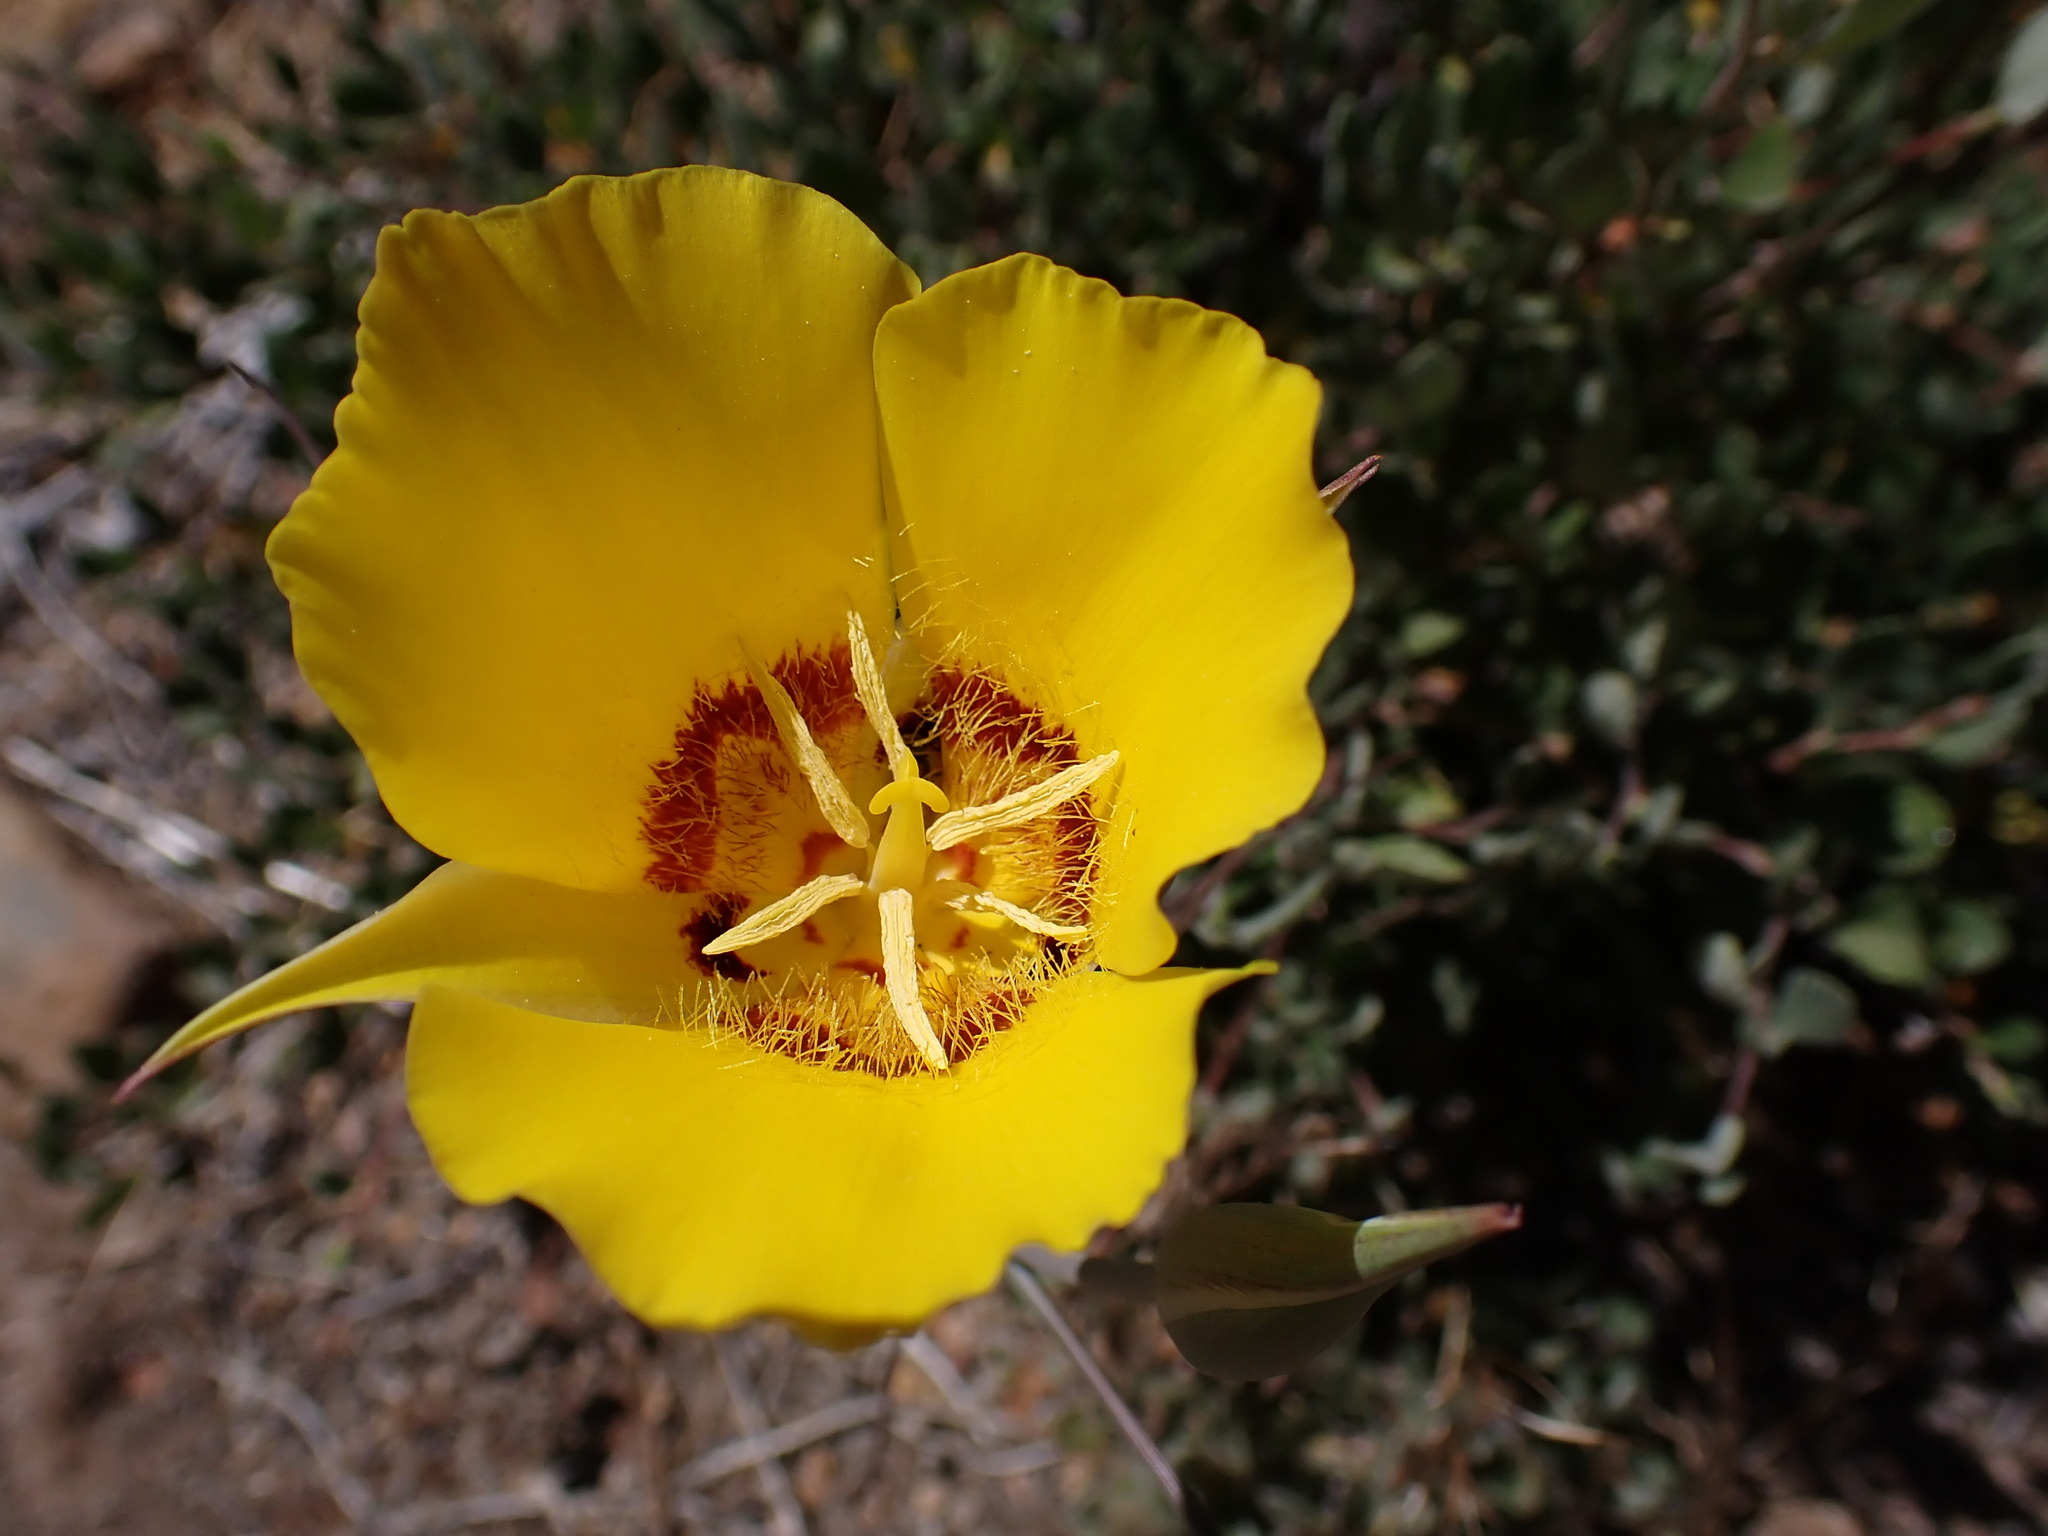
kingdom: Plantae
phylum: Tracheophyta
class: Liliopsida
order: Liliales
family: Liliaceae
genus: Calochortus
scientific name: Calochortus concolor
